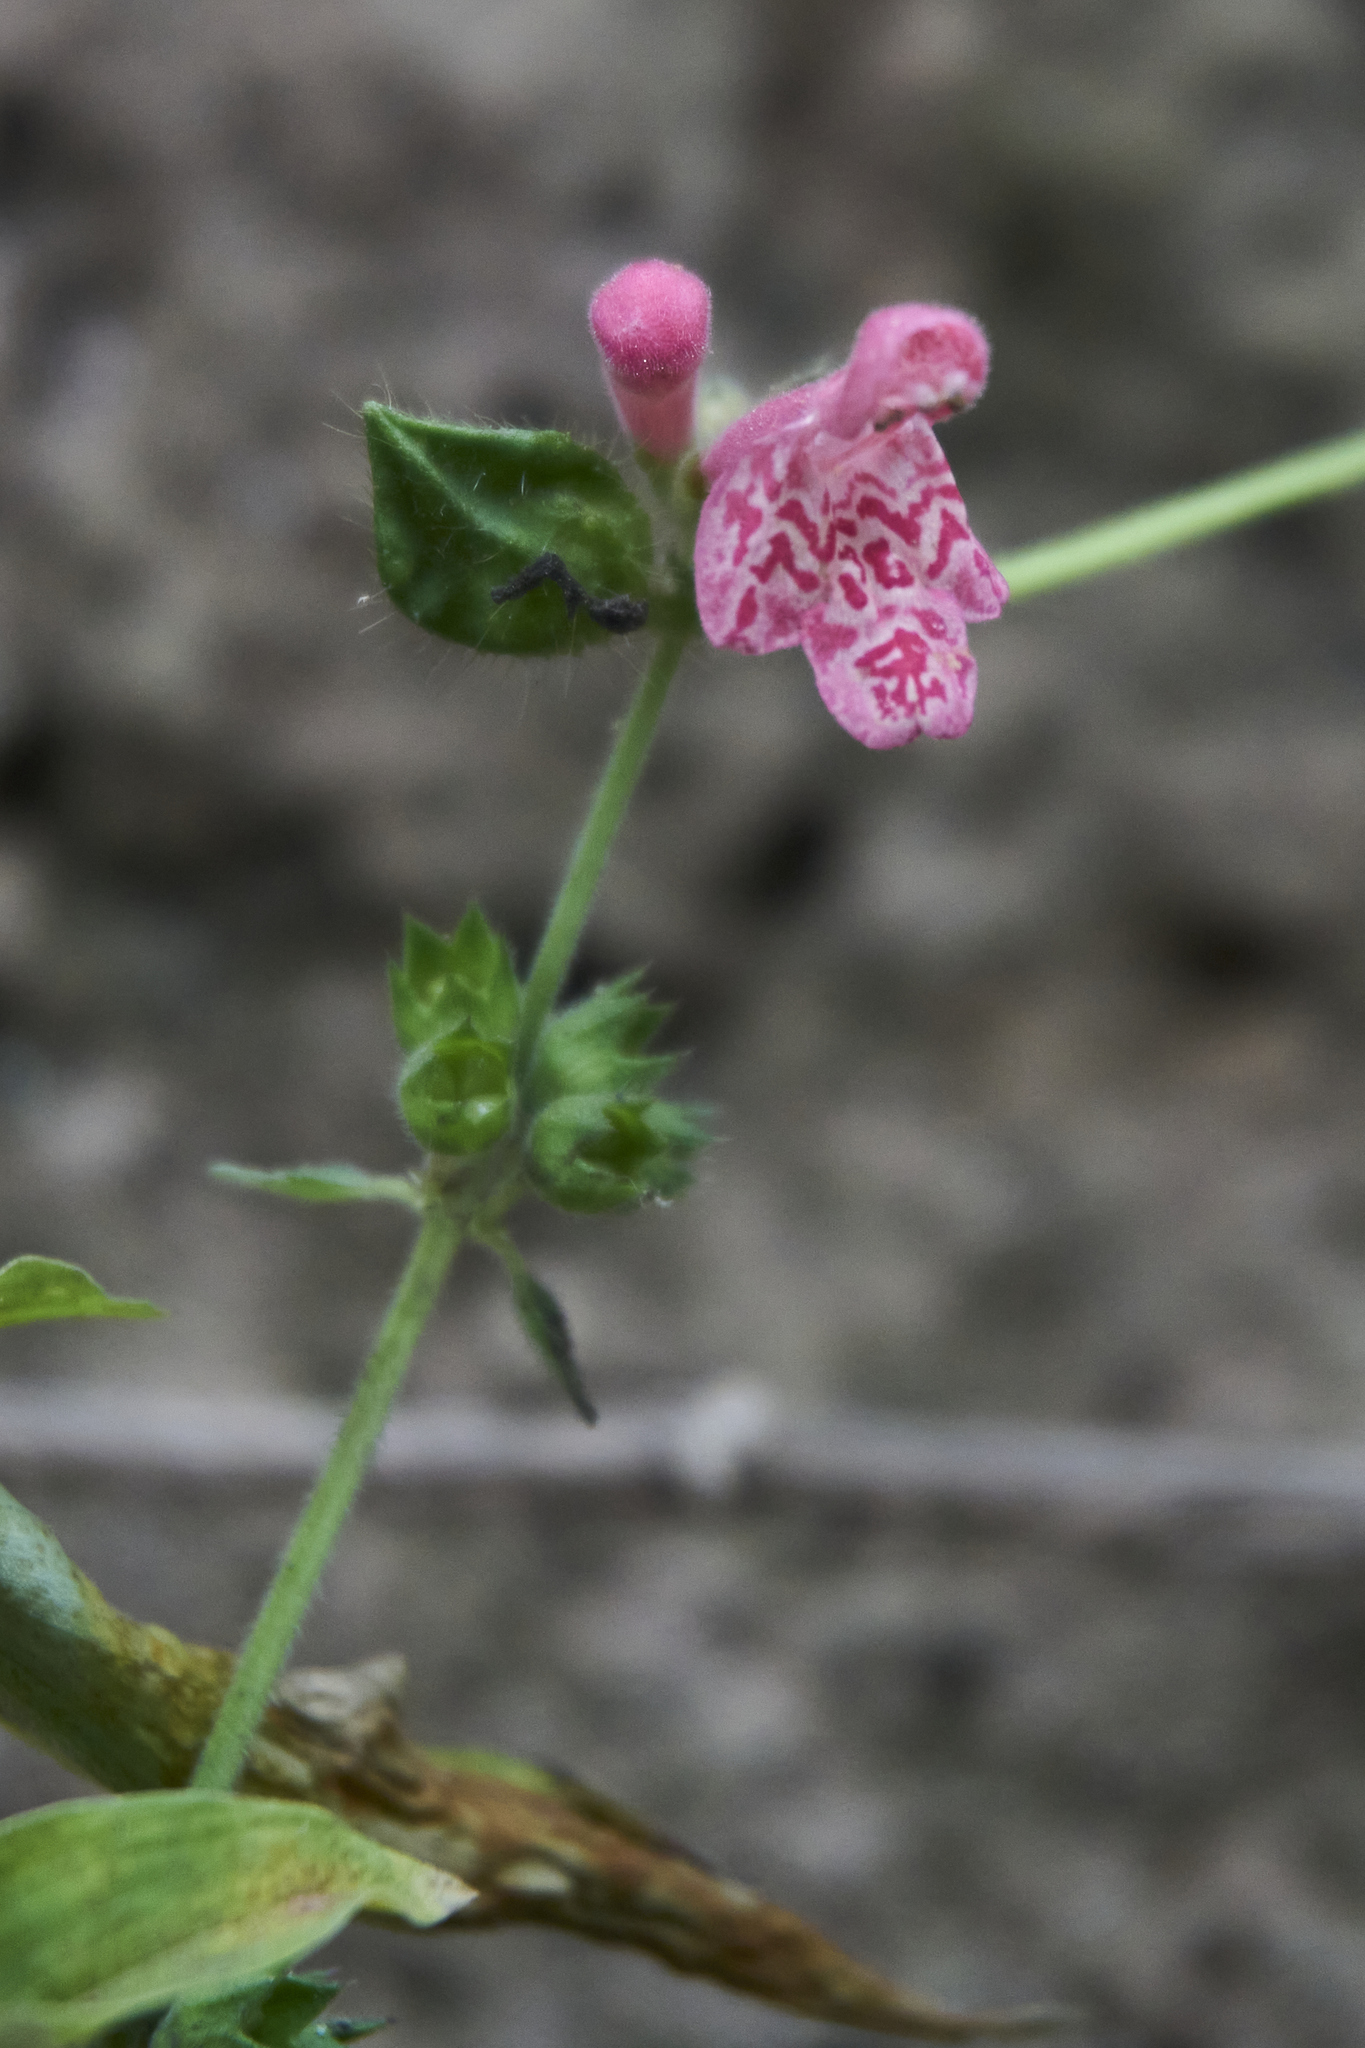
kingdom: Plantae
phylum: Tracheophyta
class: Magnoliopsida
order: Lamiales
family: Lamiaceae
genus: Stachys
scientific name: Stachys coccinea
